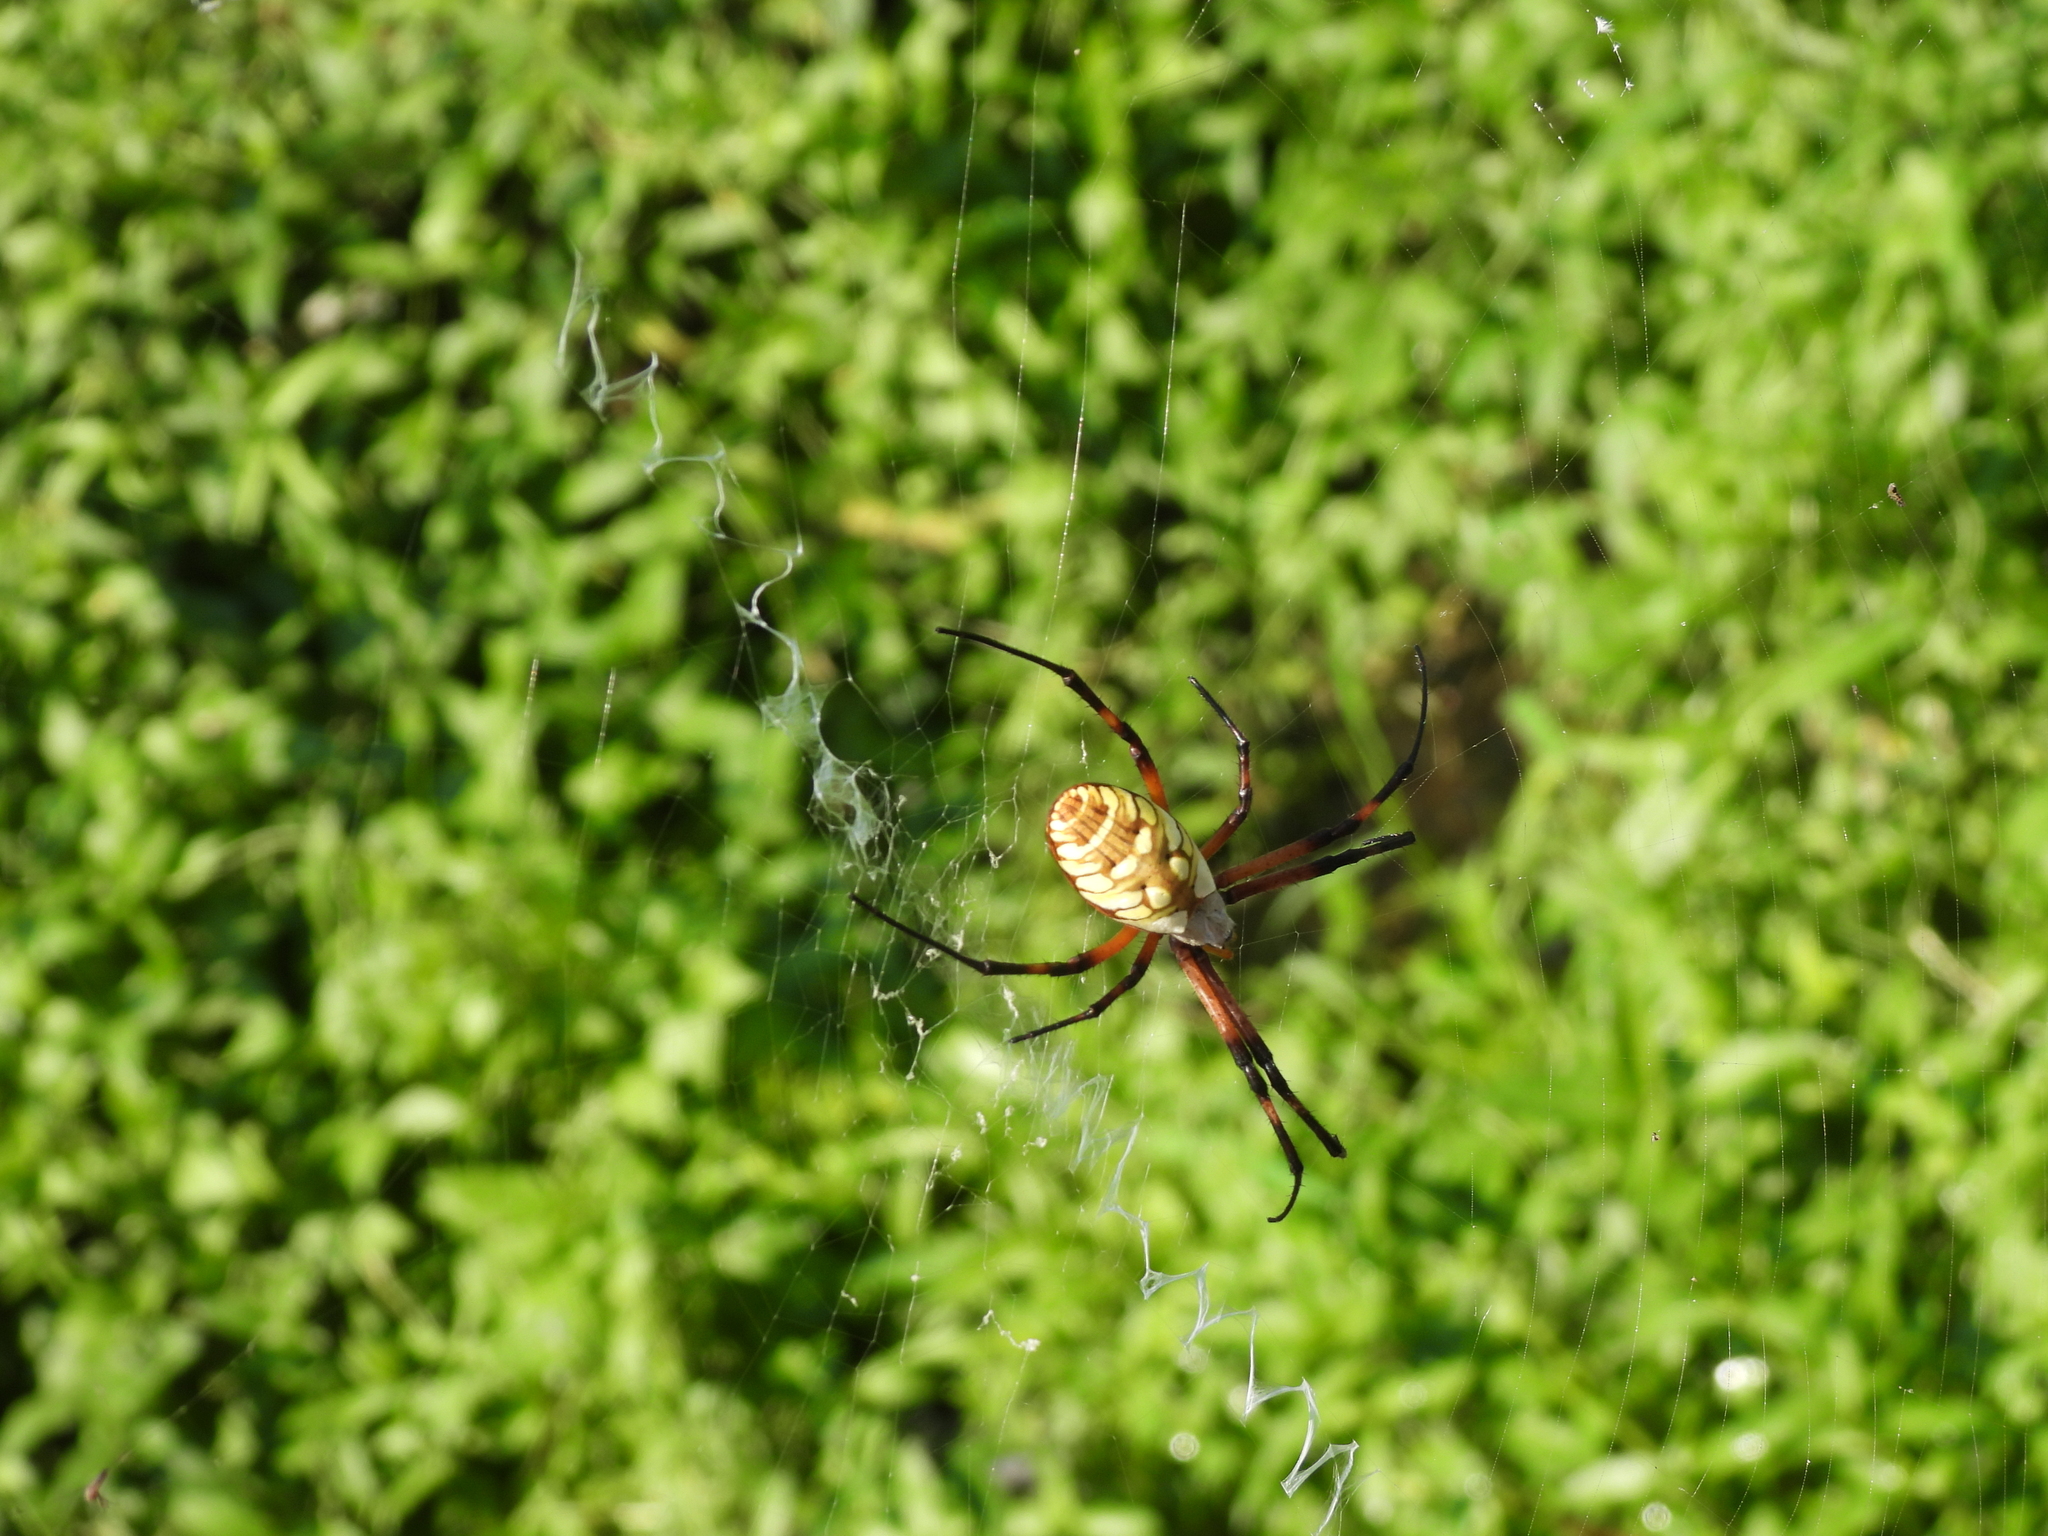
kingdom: Animalia
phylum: Arthropoda
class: Arachnida
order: Araneae
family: Araneidae
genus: Argiope
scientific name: Argiope aurantia
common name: Orb weavers
